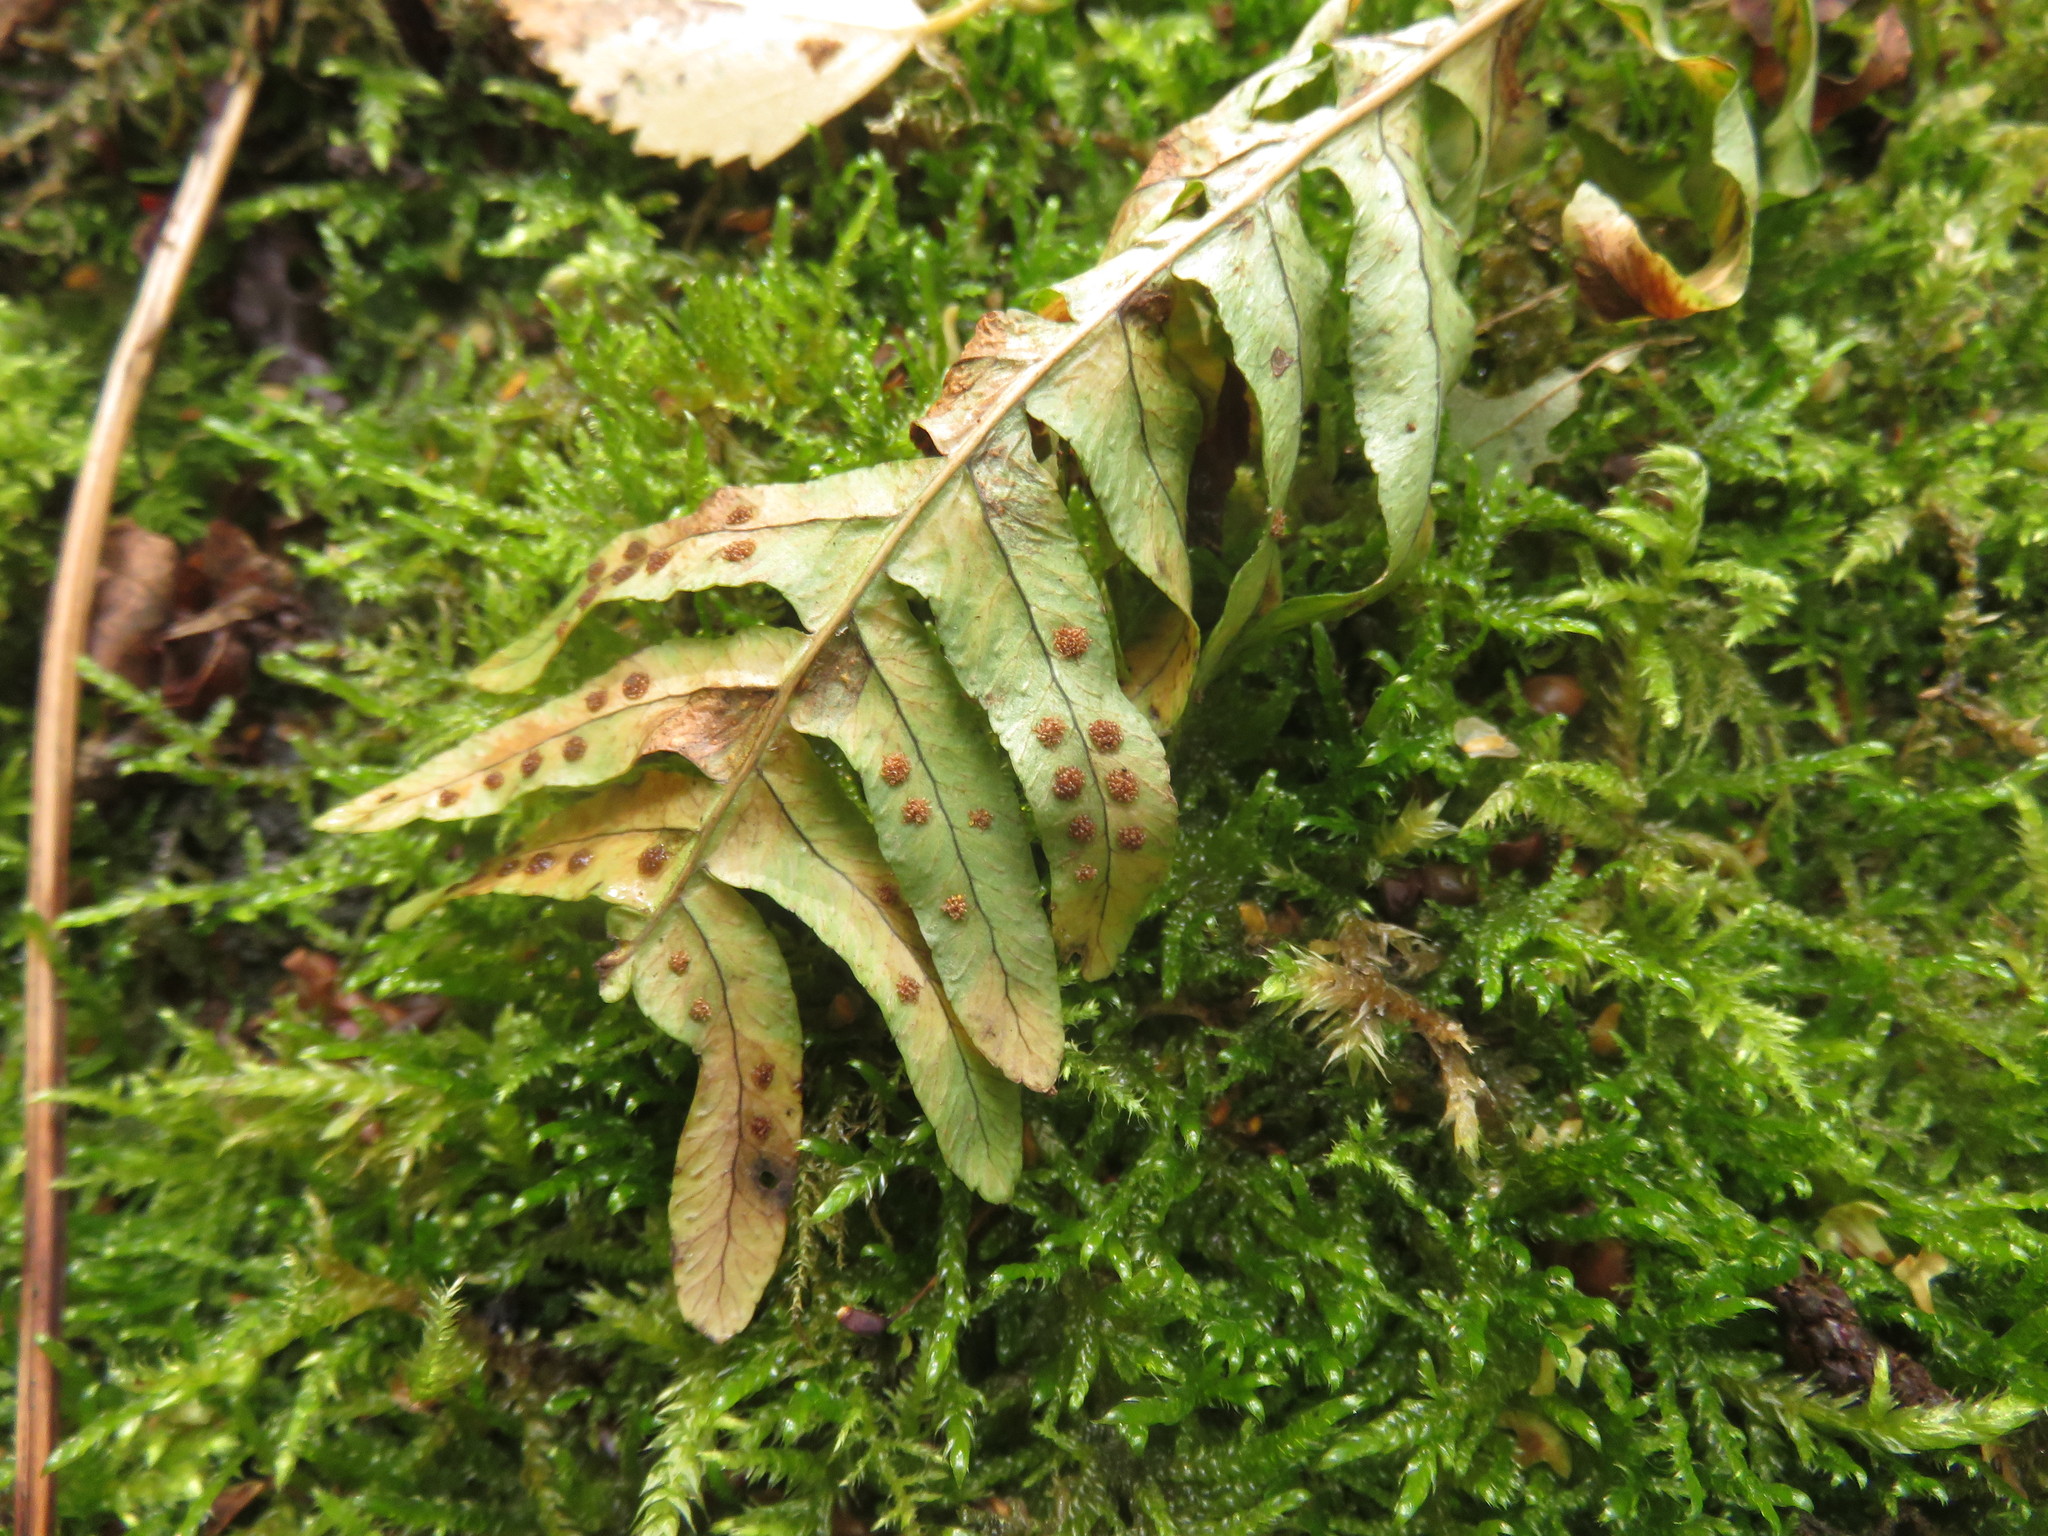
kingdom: Plantae
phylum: Tracheophyta
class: Polypodiopsida
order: Polypodiales
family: Polypodiaceae
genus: Polypodium
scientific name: Polypodium vulgare
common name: Common polypody
